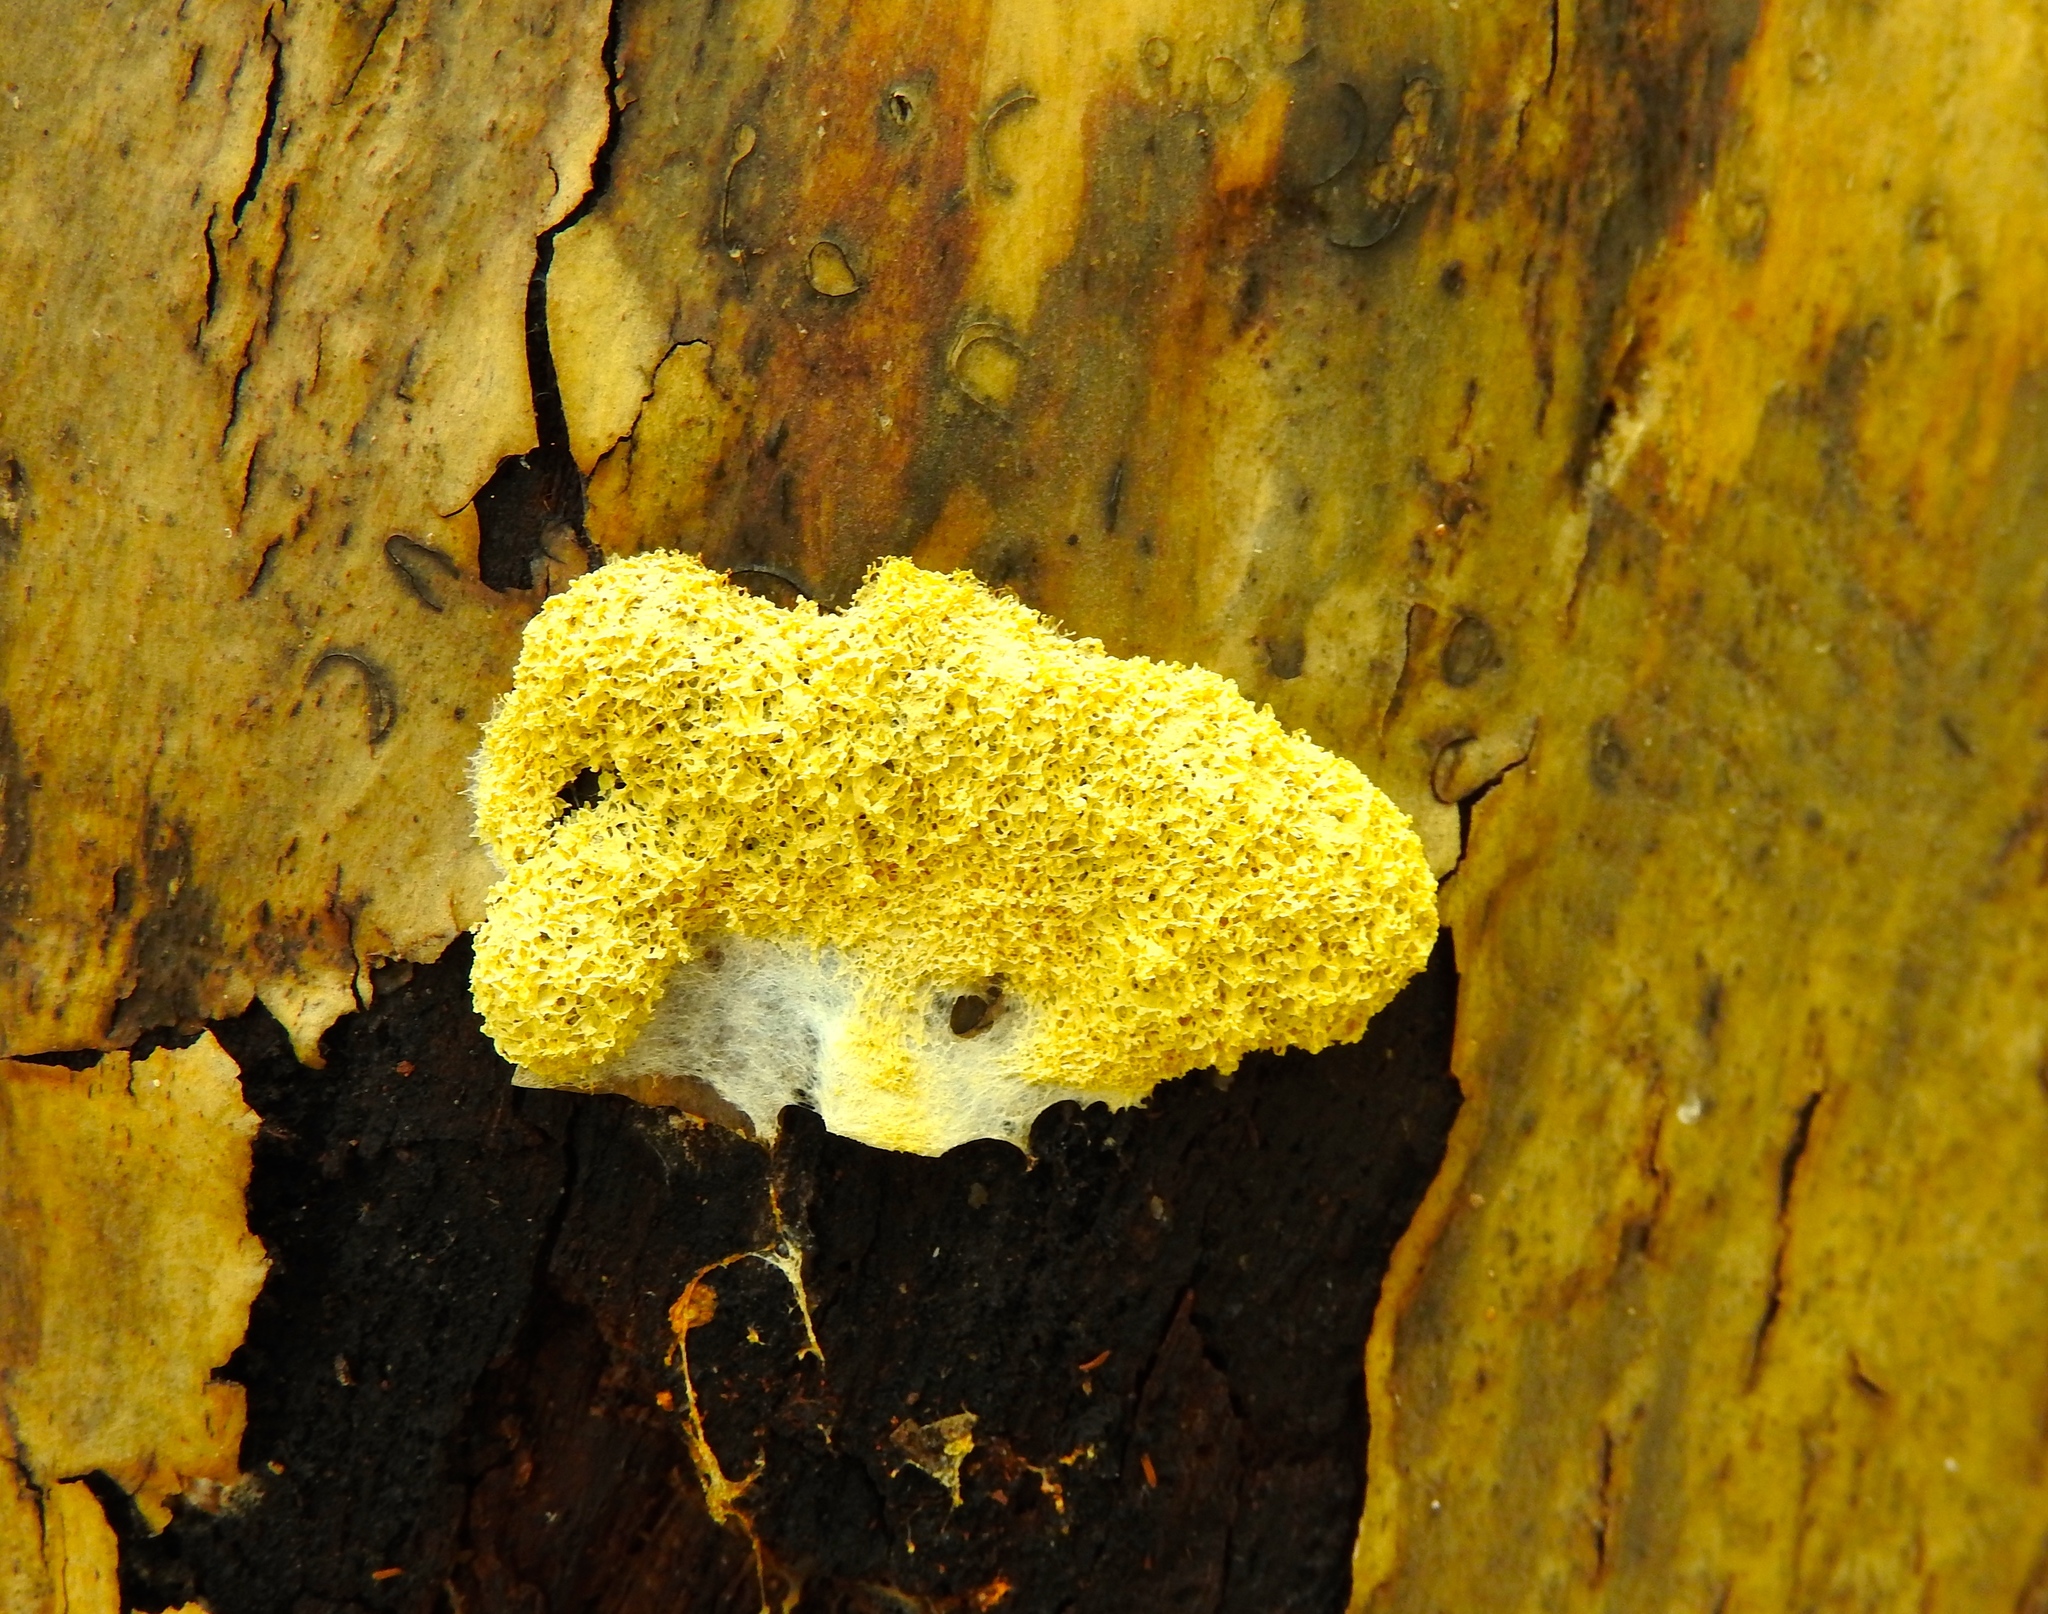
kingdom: Protozoa
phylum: Mycetozoa
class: Myxomycetes
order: Physarales
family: Physaraceae
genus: Fuligo
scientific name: Fuligo septica
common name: Dog vomit slime mold
